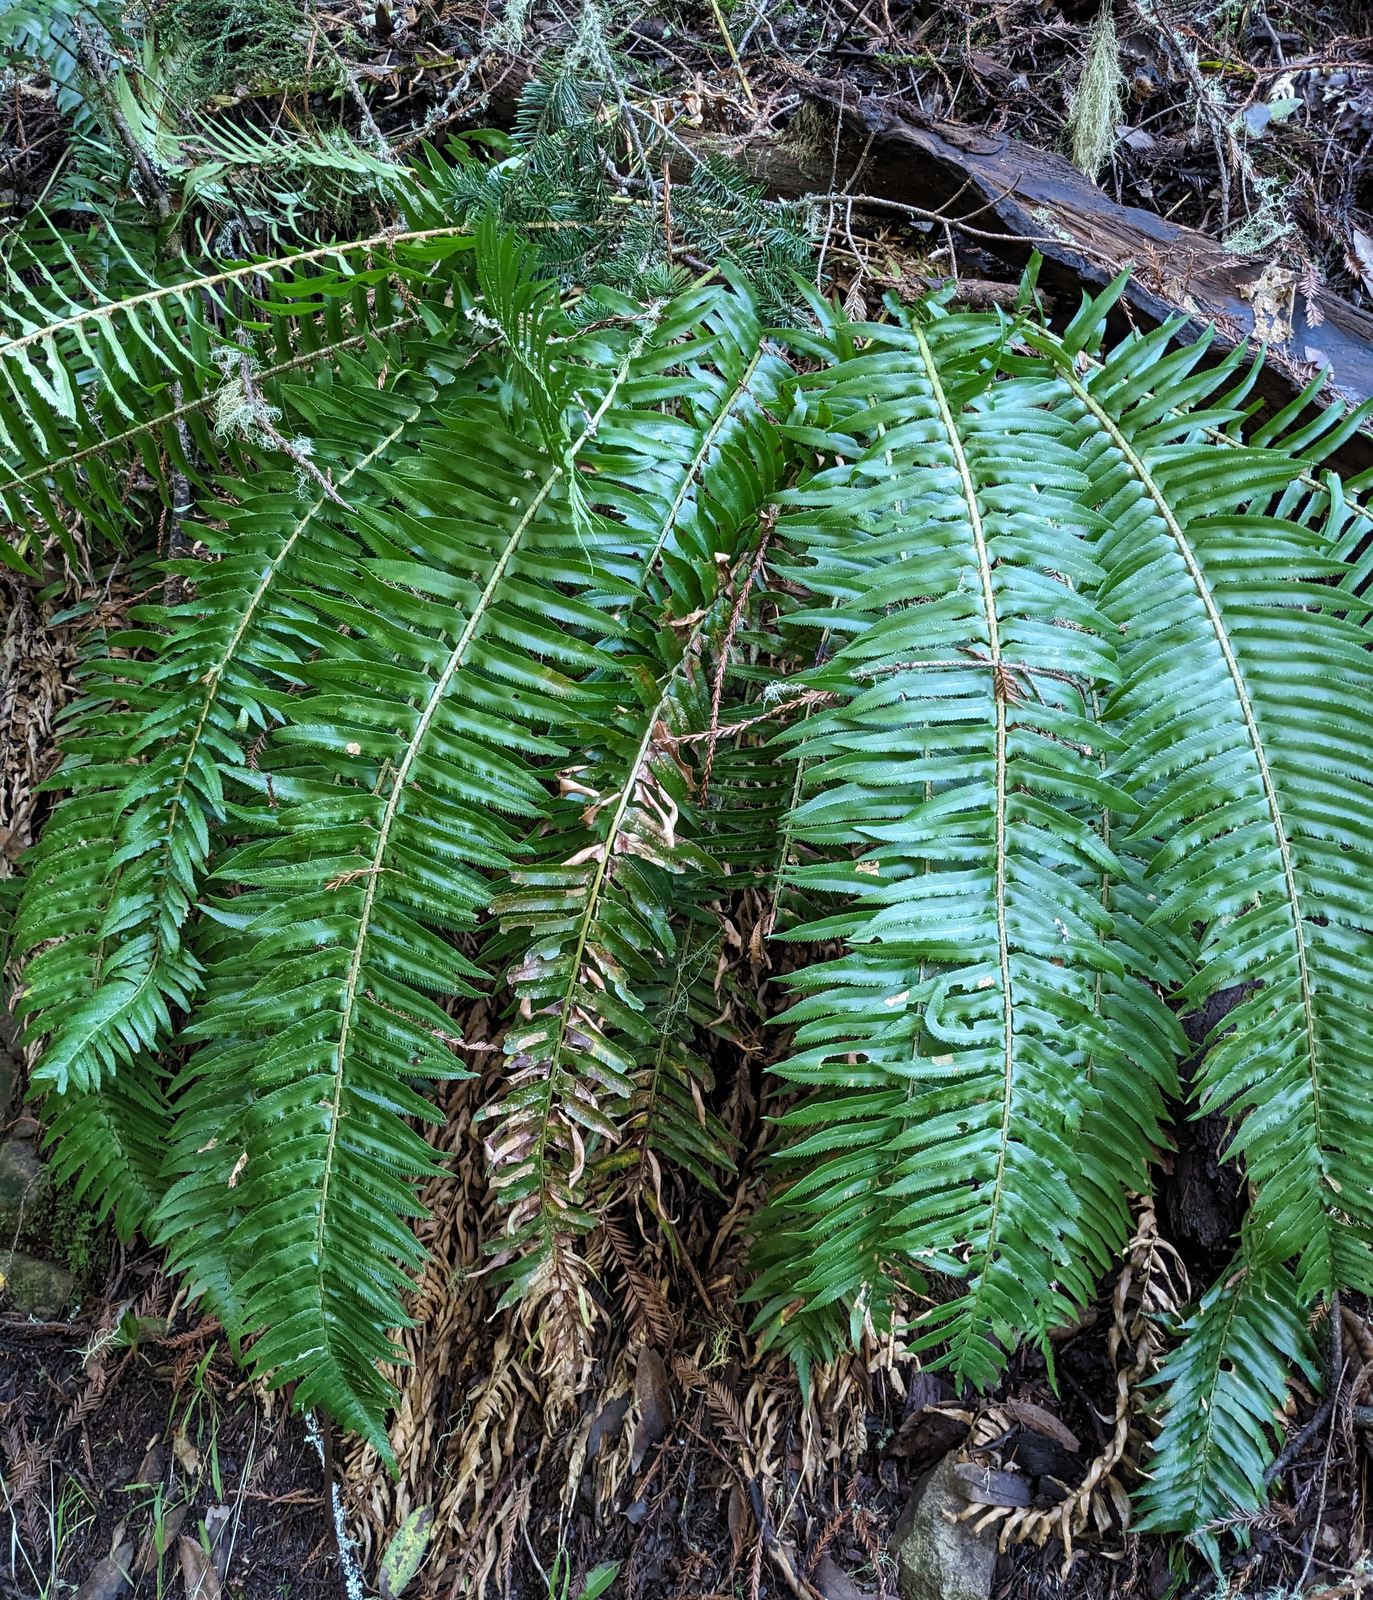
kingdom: Plantae
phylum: Tracheophyta
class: Polypodiopsida
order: Polypodiales
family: Dryopteridaceae
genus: Polystichum
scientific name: Polystichum munitum
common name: Western sword-fern
